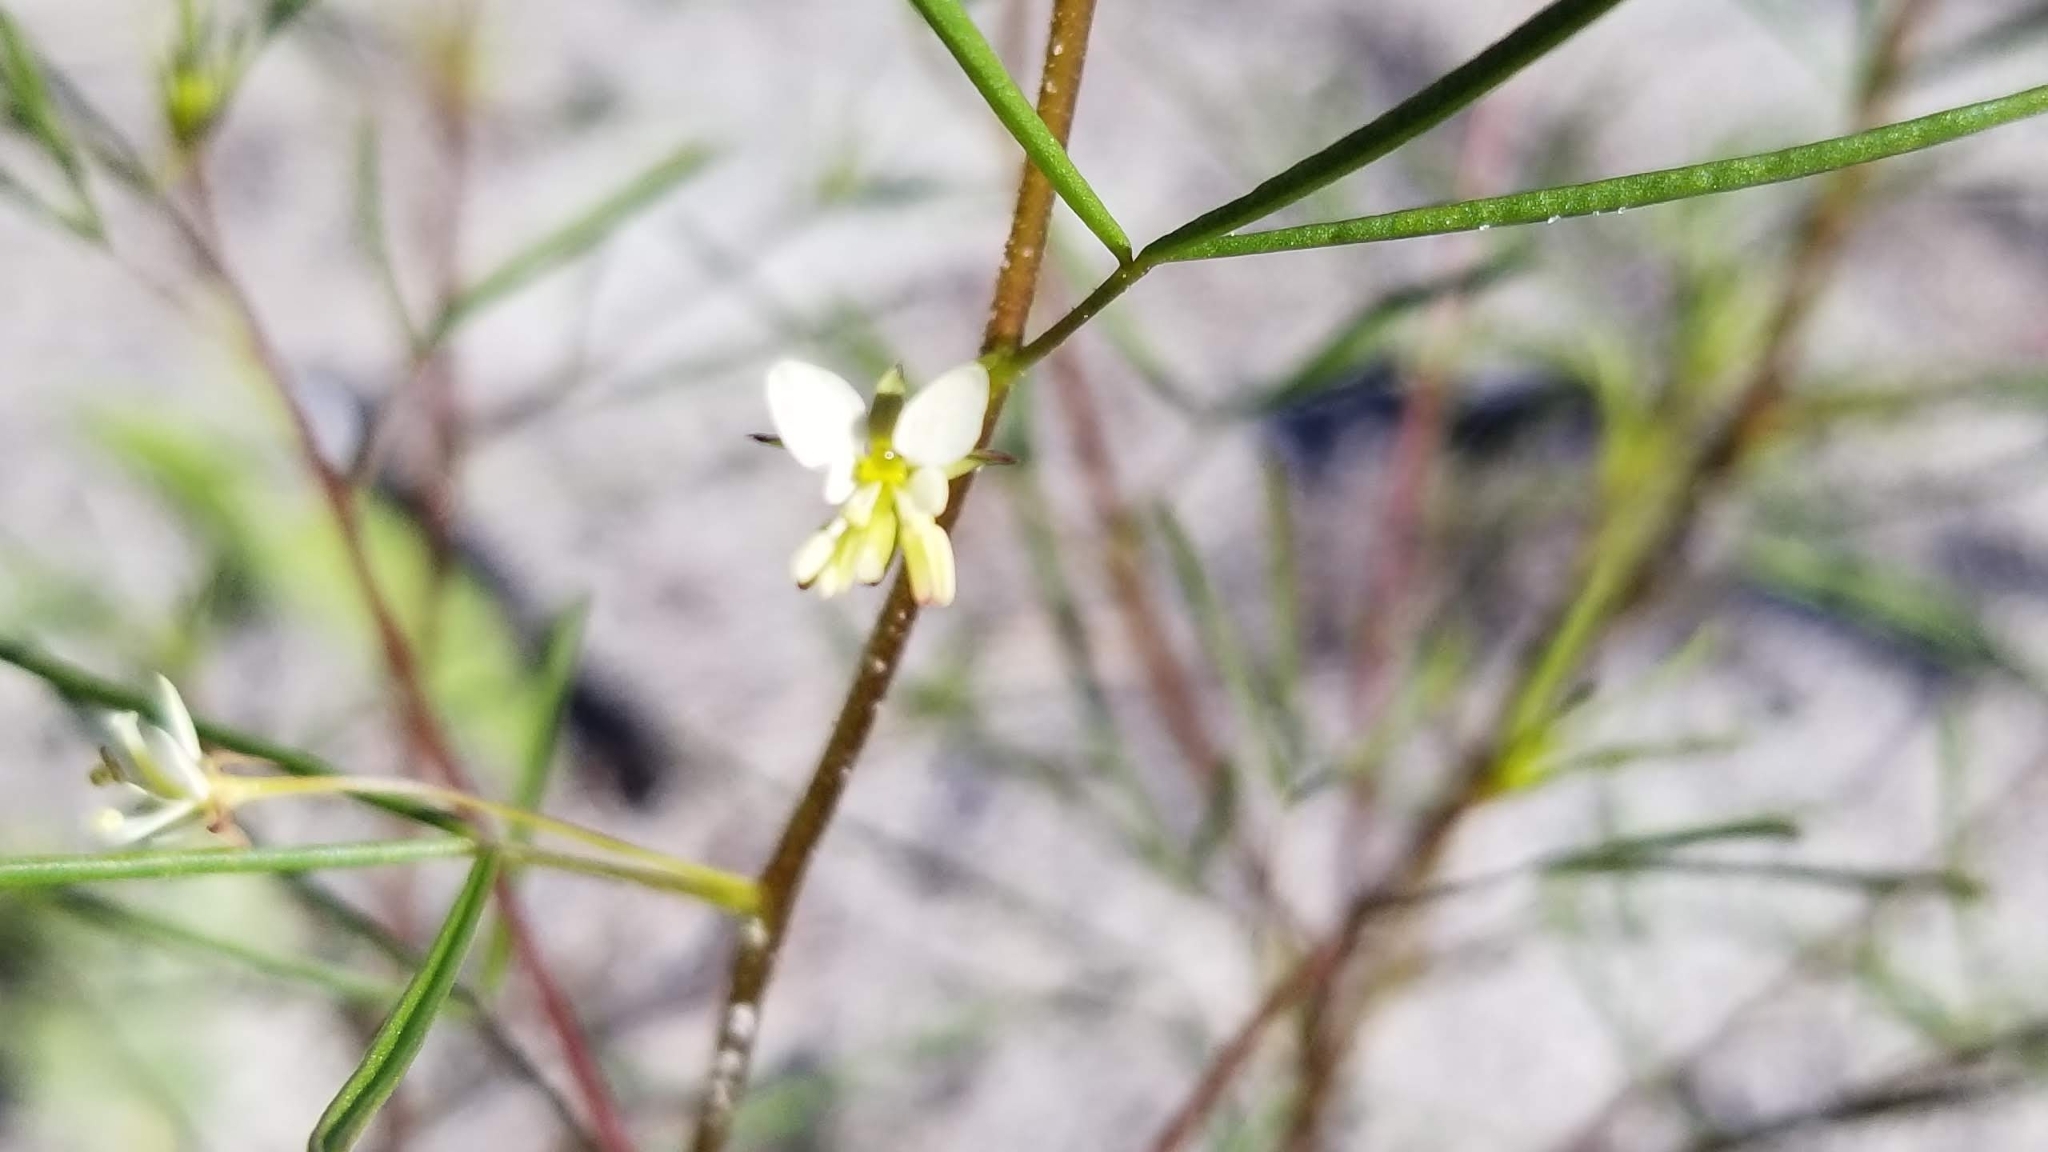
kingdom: Plantae
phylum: Tracheophyta
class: Magnoliopsida
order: Brassicales
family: Cleomaceae
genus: Polanisia
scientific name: Polanisia tenuifolia
